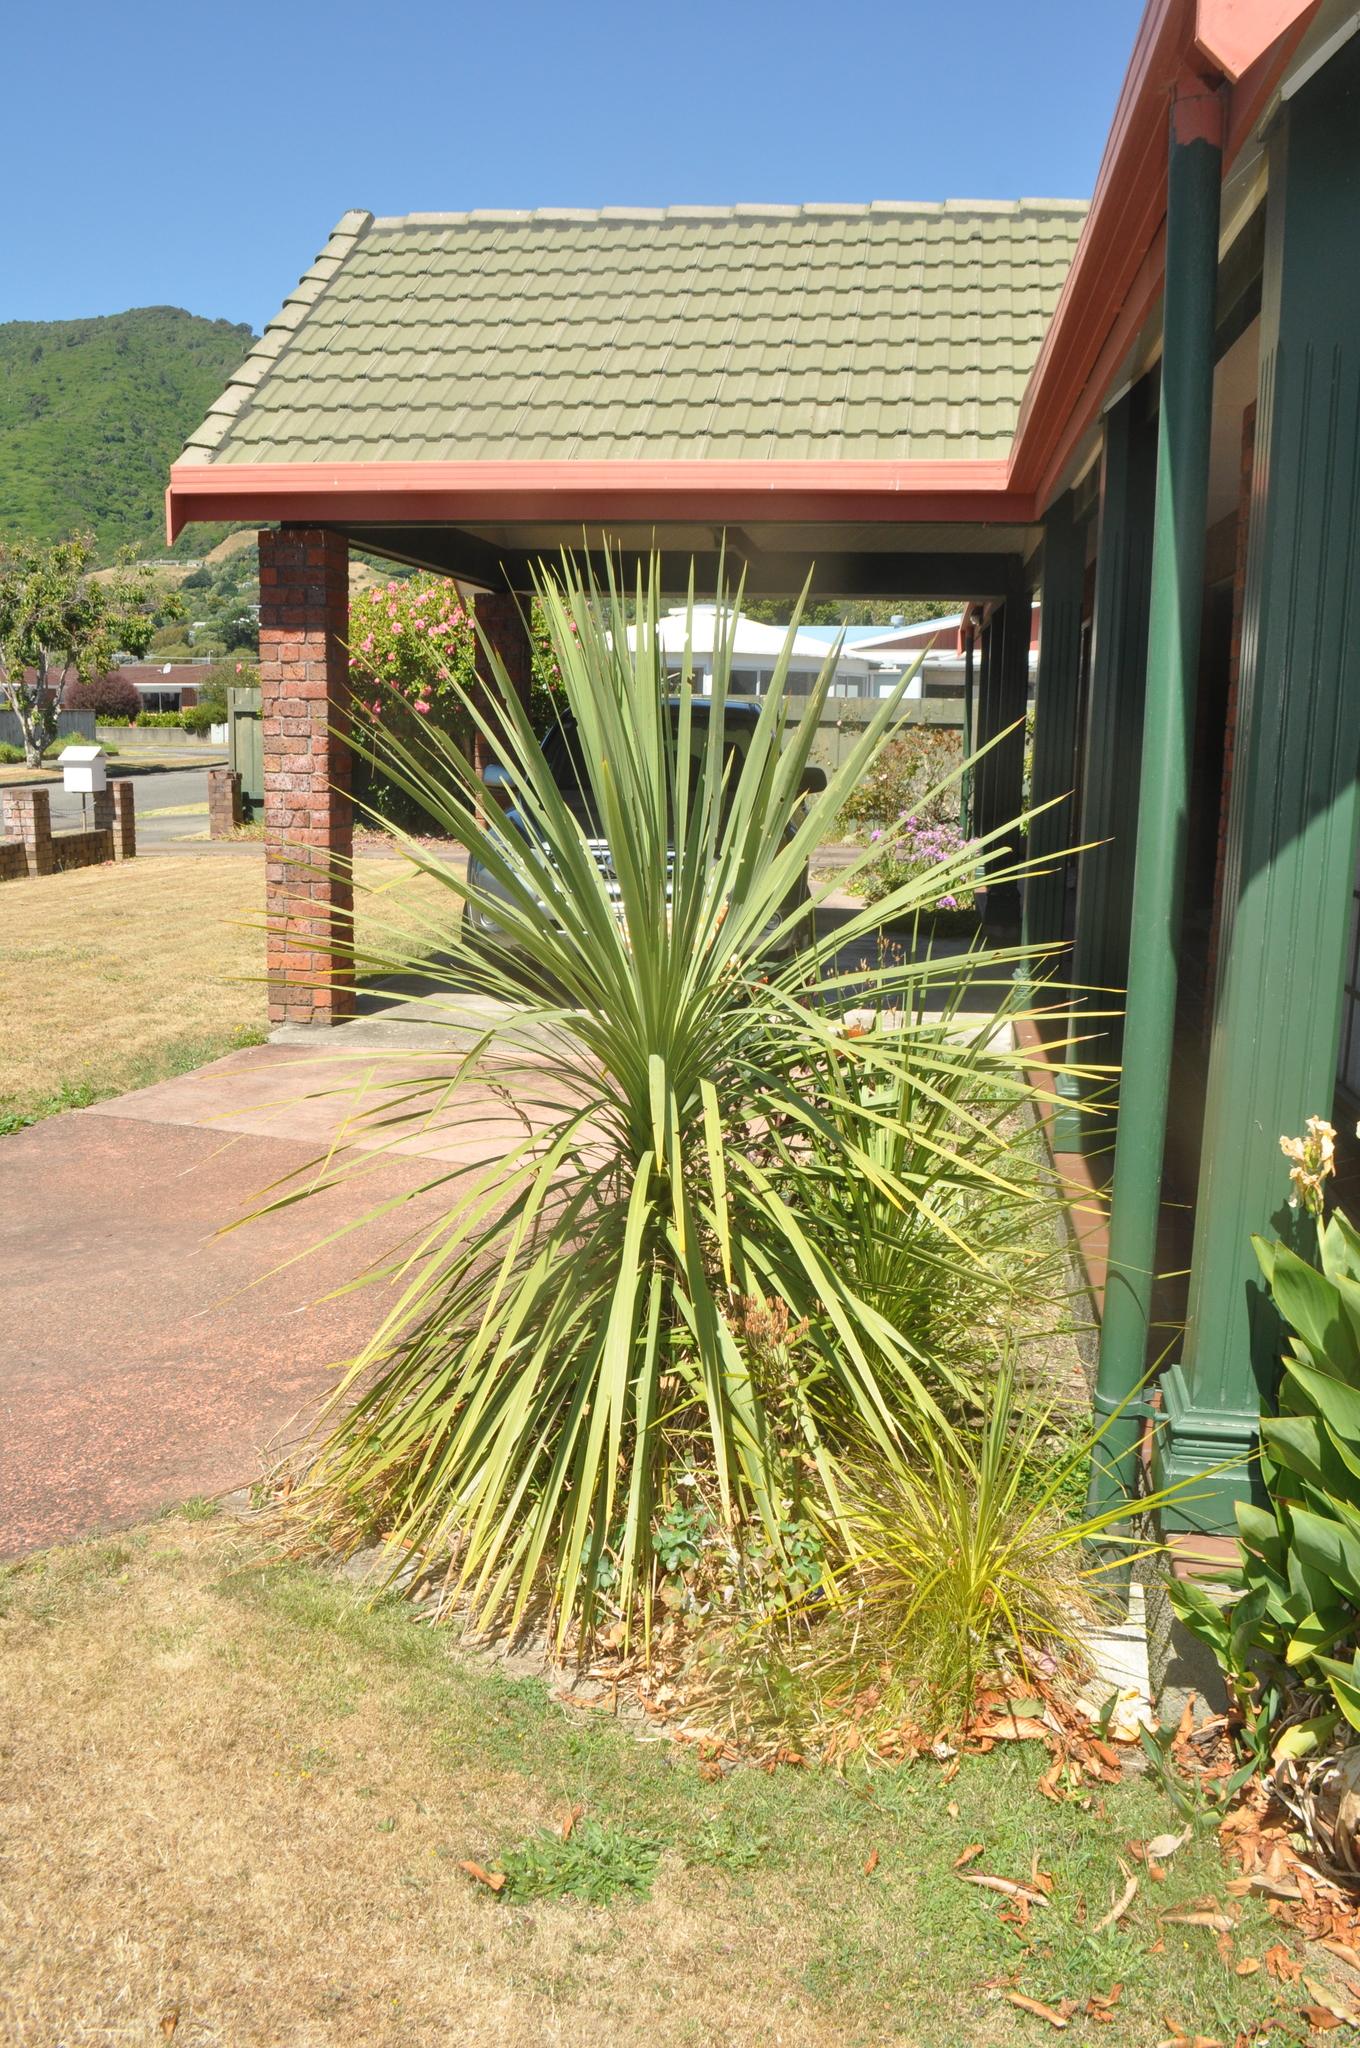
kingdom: Plantae
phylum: Tracheophyta
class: Liliopsida
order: Asparagales
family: Asparagaceae
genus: Cordyline
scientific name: Cordyline australis
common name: Cabbage-palm
